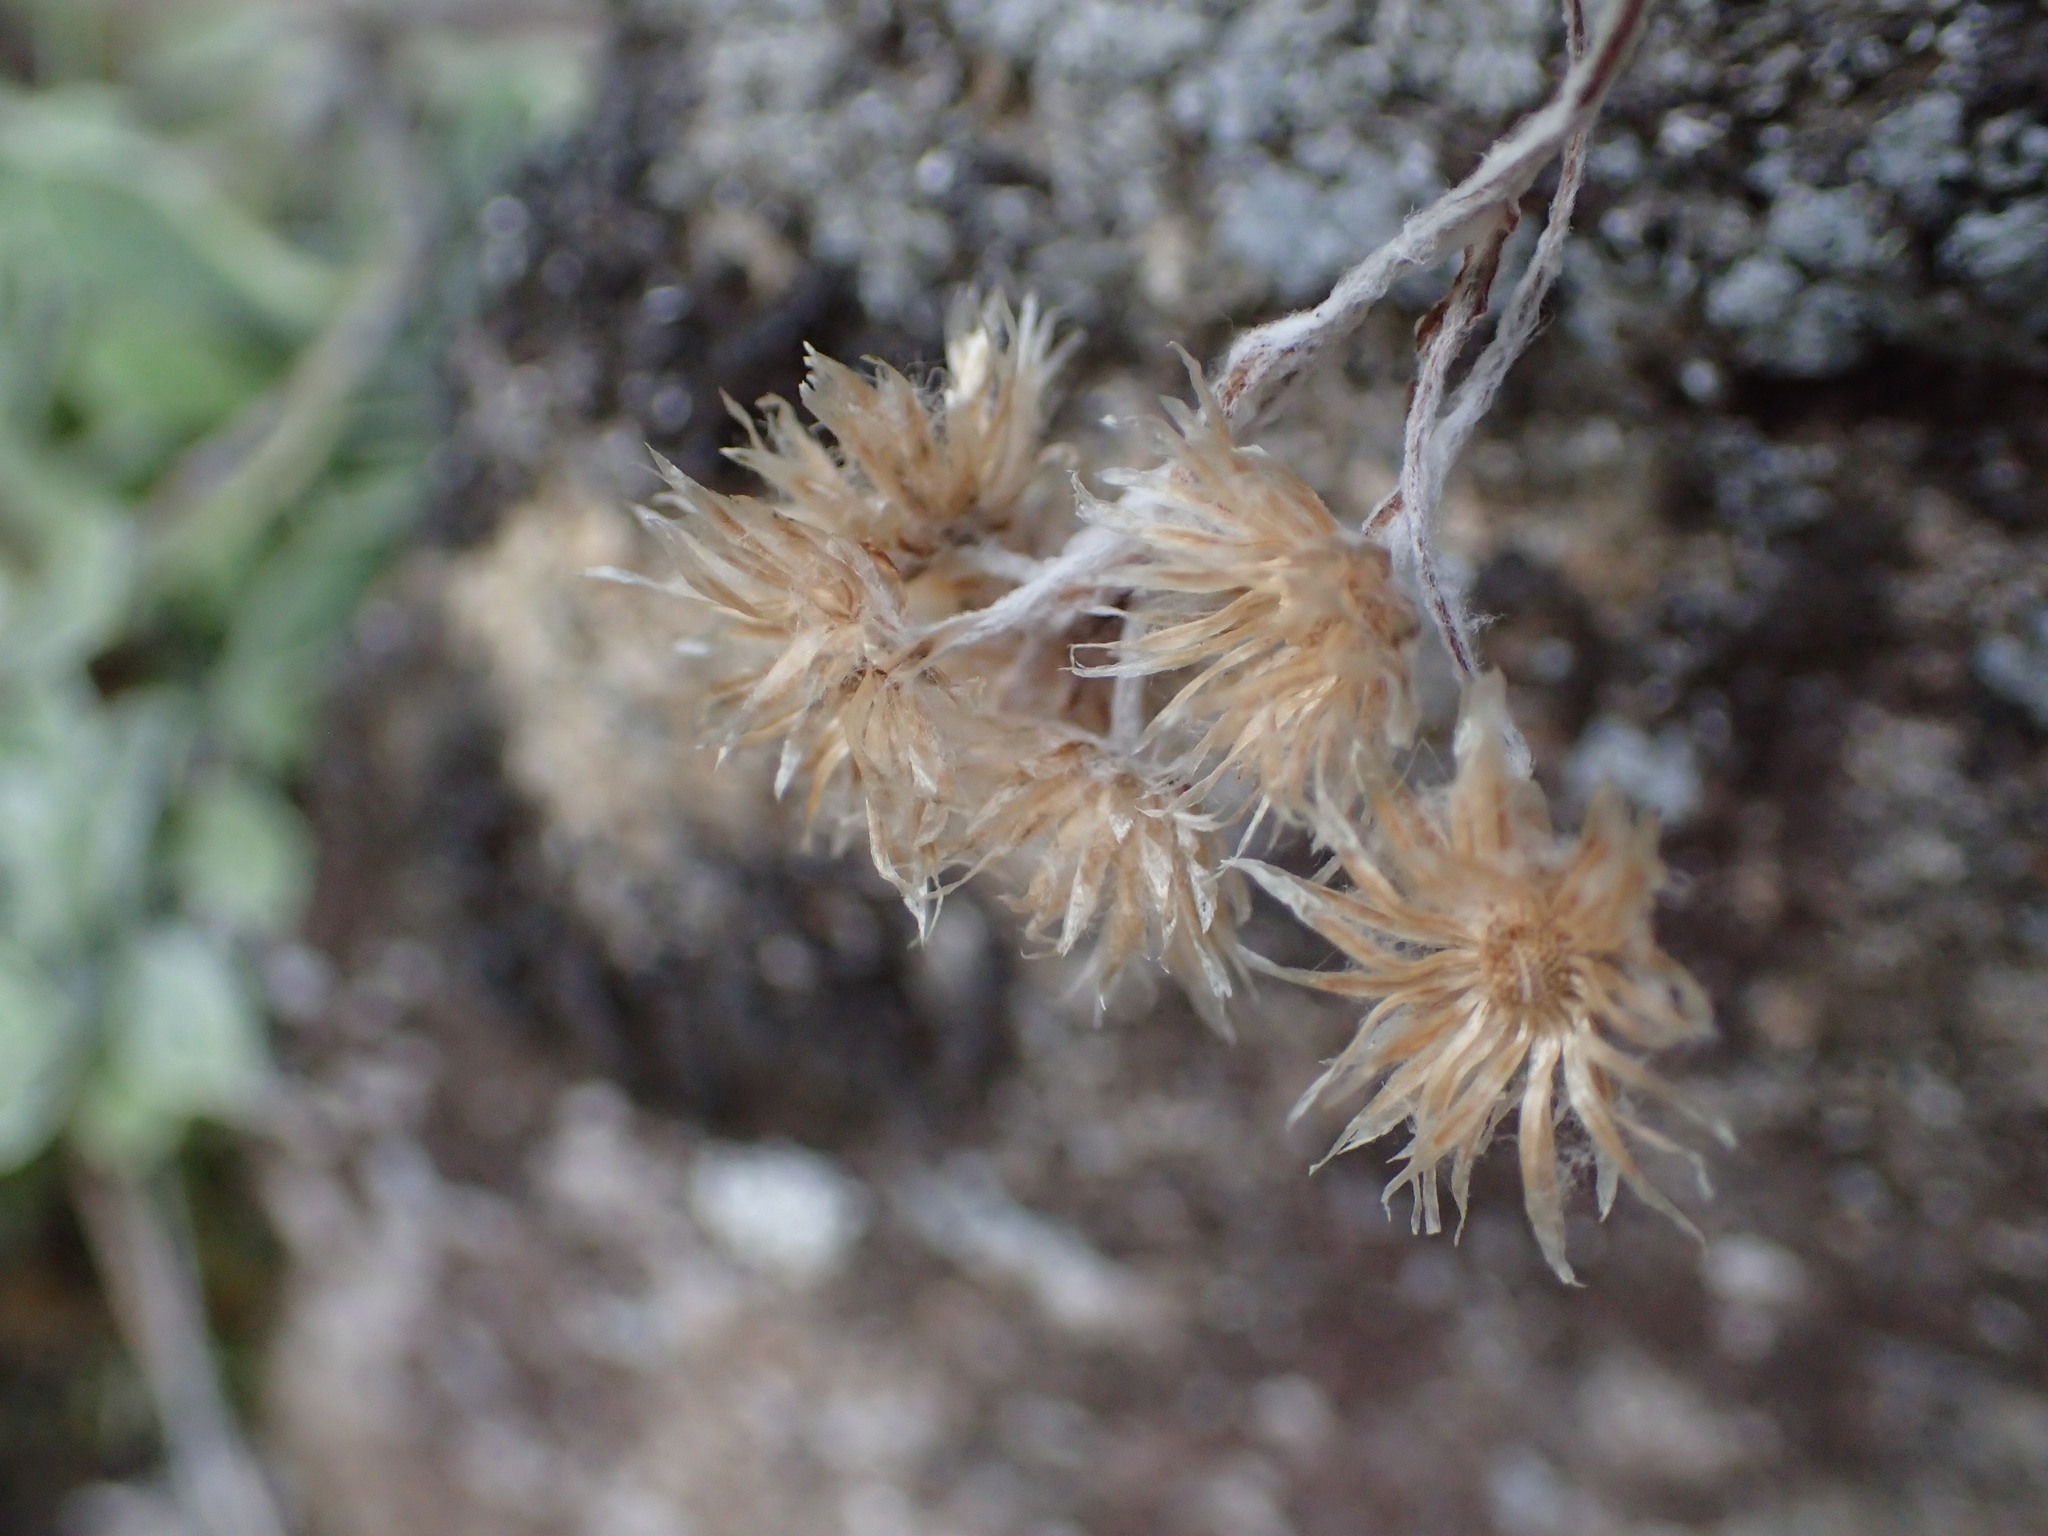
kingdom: Plantae
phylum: Tracheophyta
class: Magnoliopsida
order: Asterales
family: Asteraceae
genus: Antennaria
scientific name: Antennaria howellii
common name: Howell's pussytoes
